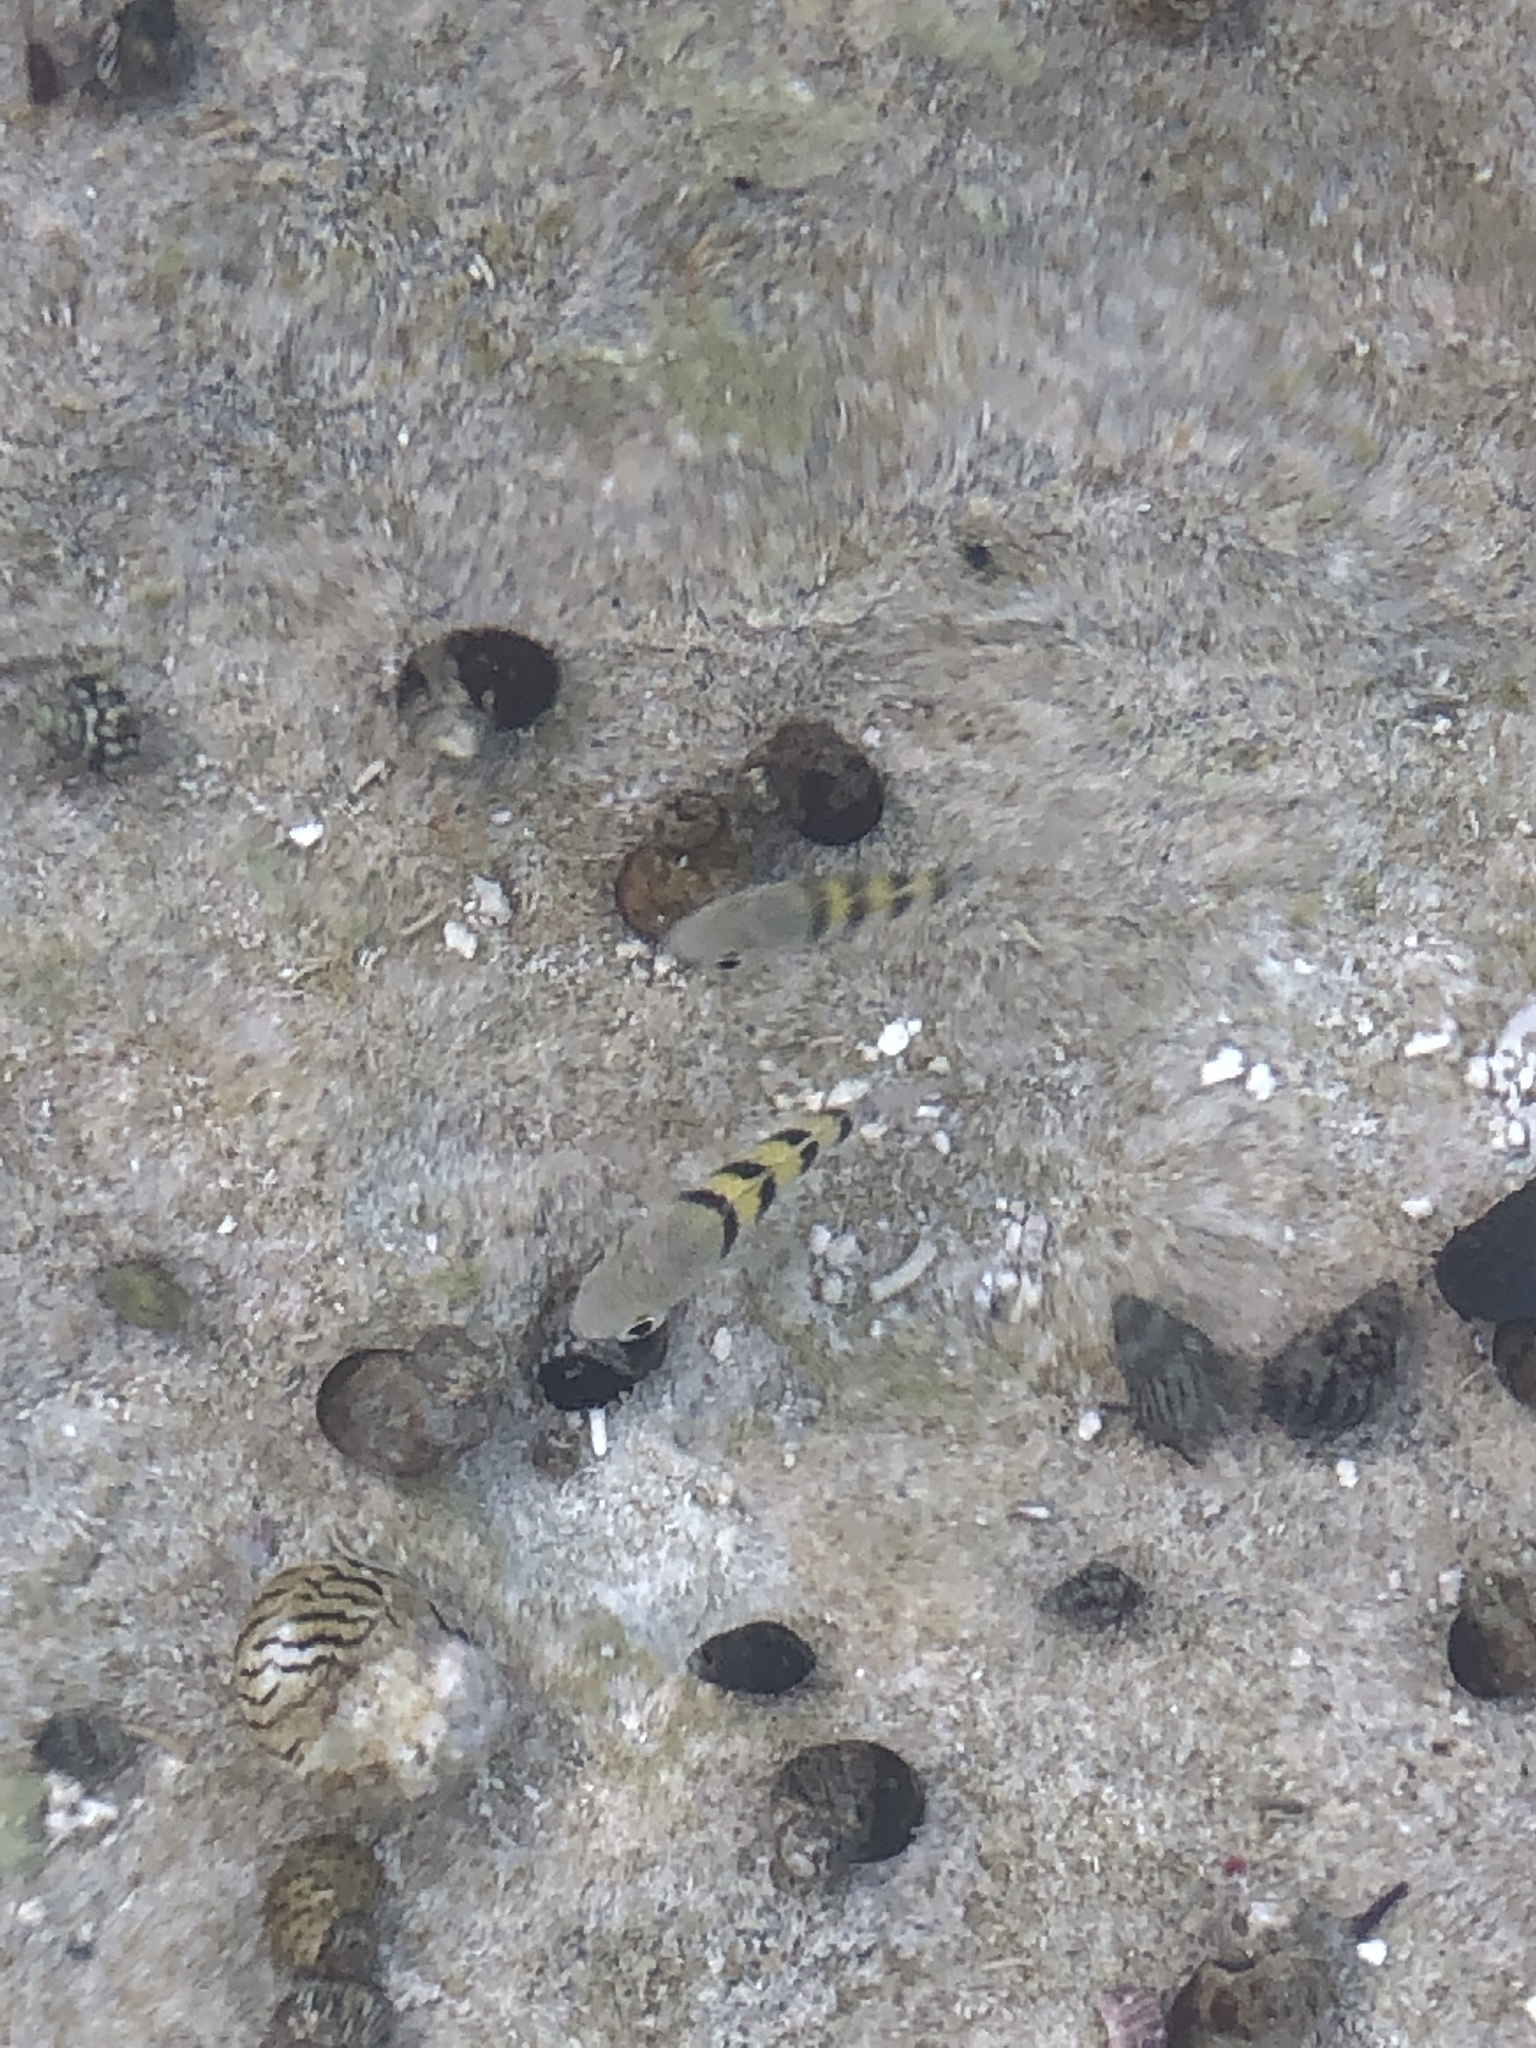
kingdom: Animalia
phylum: Chordata
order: Perciformes
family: Pomacentridae
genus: Abudefduf
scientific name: Abudefduf saxatilis
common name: Sergeant major
